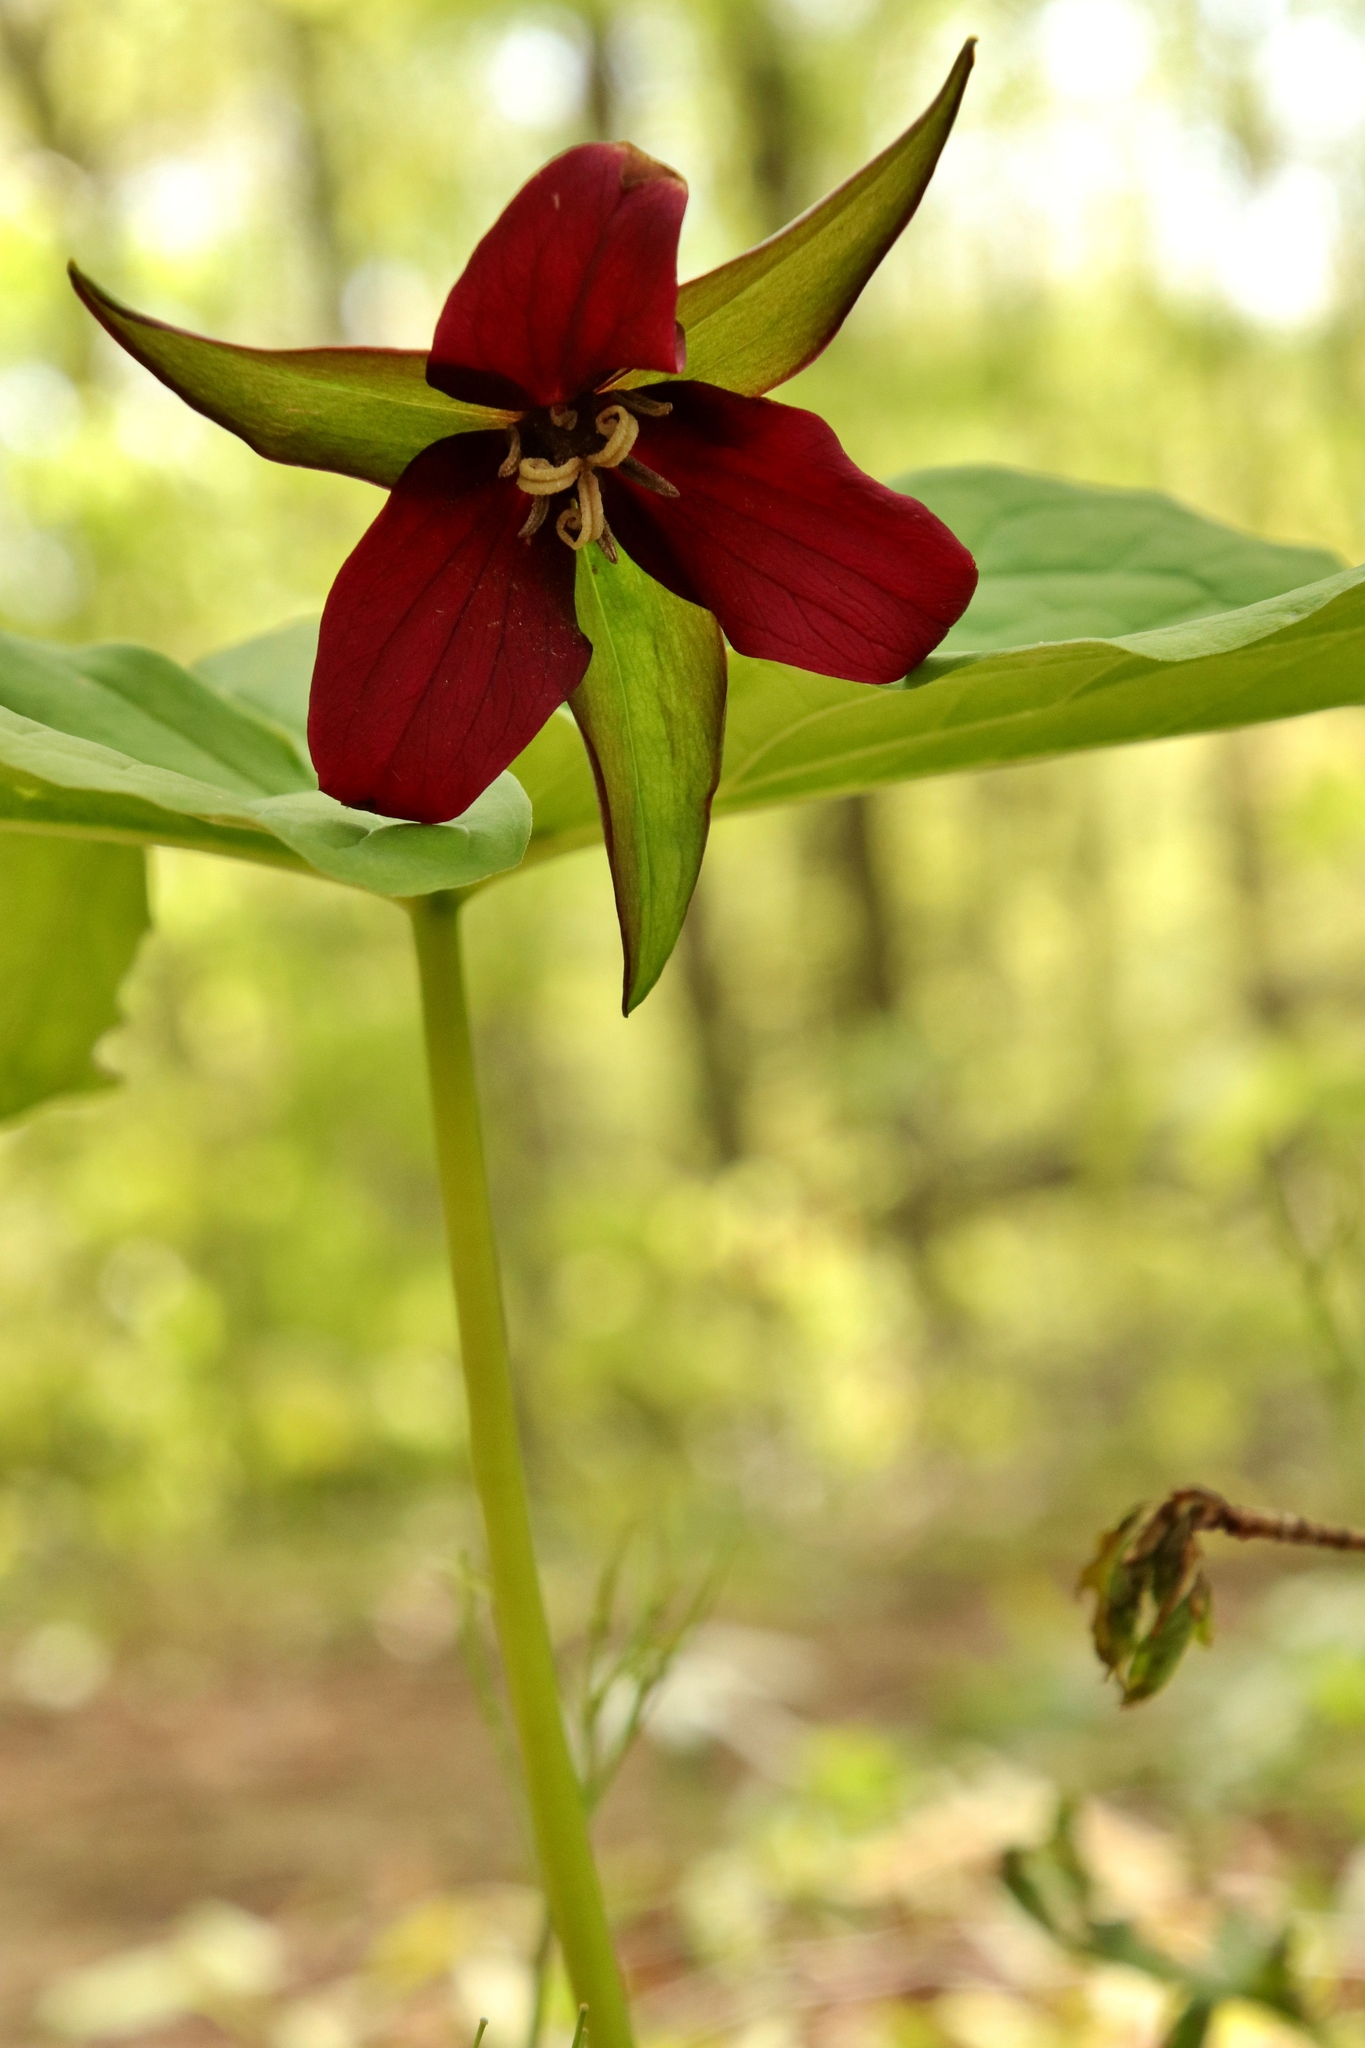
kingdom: Plantae
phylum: Tracheophyta
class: Liliopsida
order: Liliales
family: Melanthiaceae
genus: Trillium
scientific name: Trillium erectum
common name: Purple trillium
